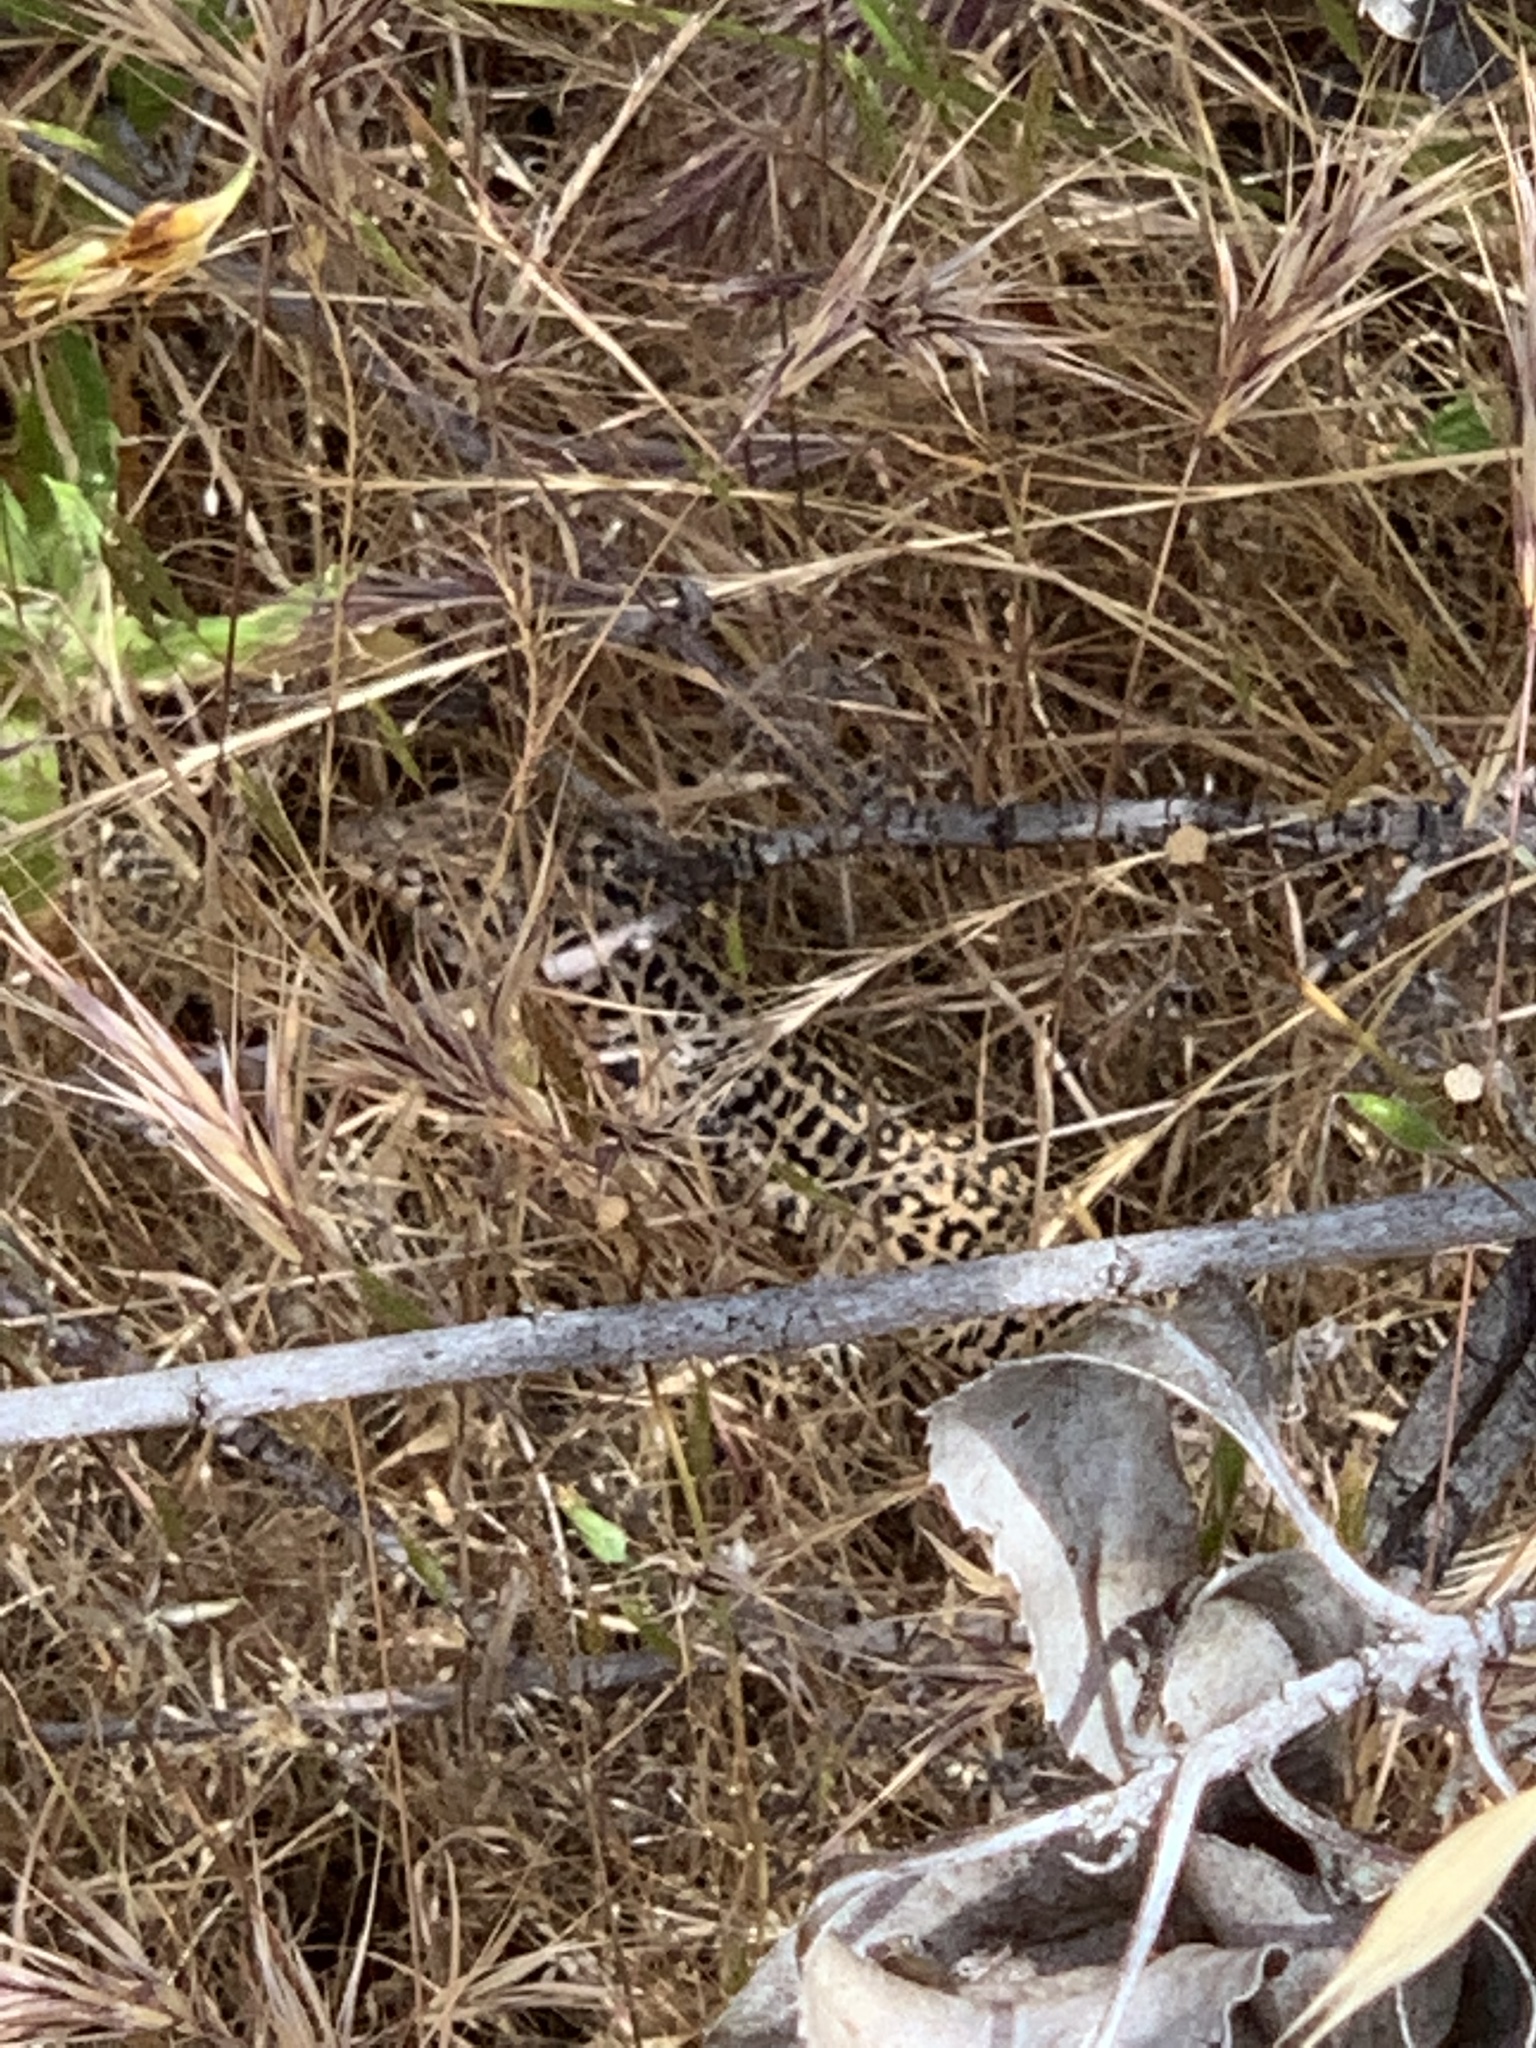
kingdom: Animalia
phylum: Chordata
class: Squamata
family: Teiidae
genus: Aspidoscelis
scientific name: Aspidoscelis tigris
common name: Tiger whiptail
